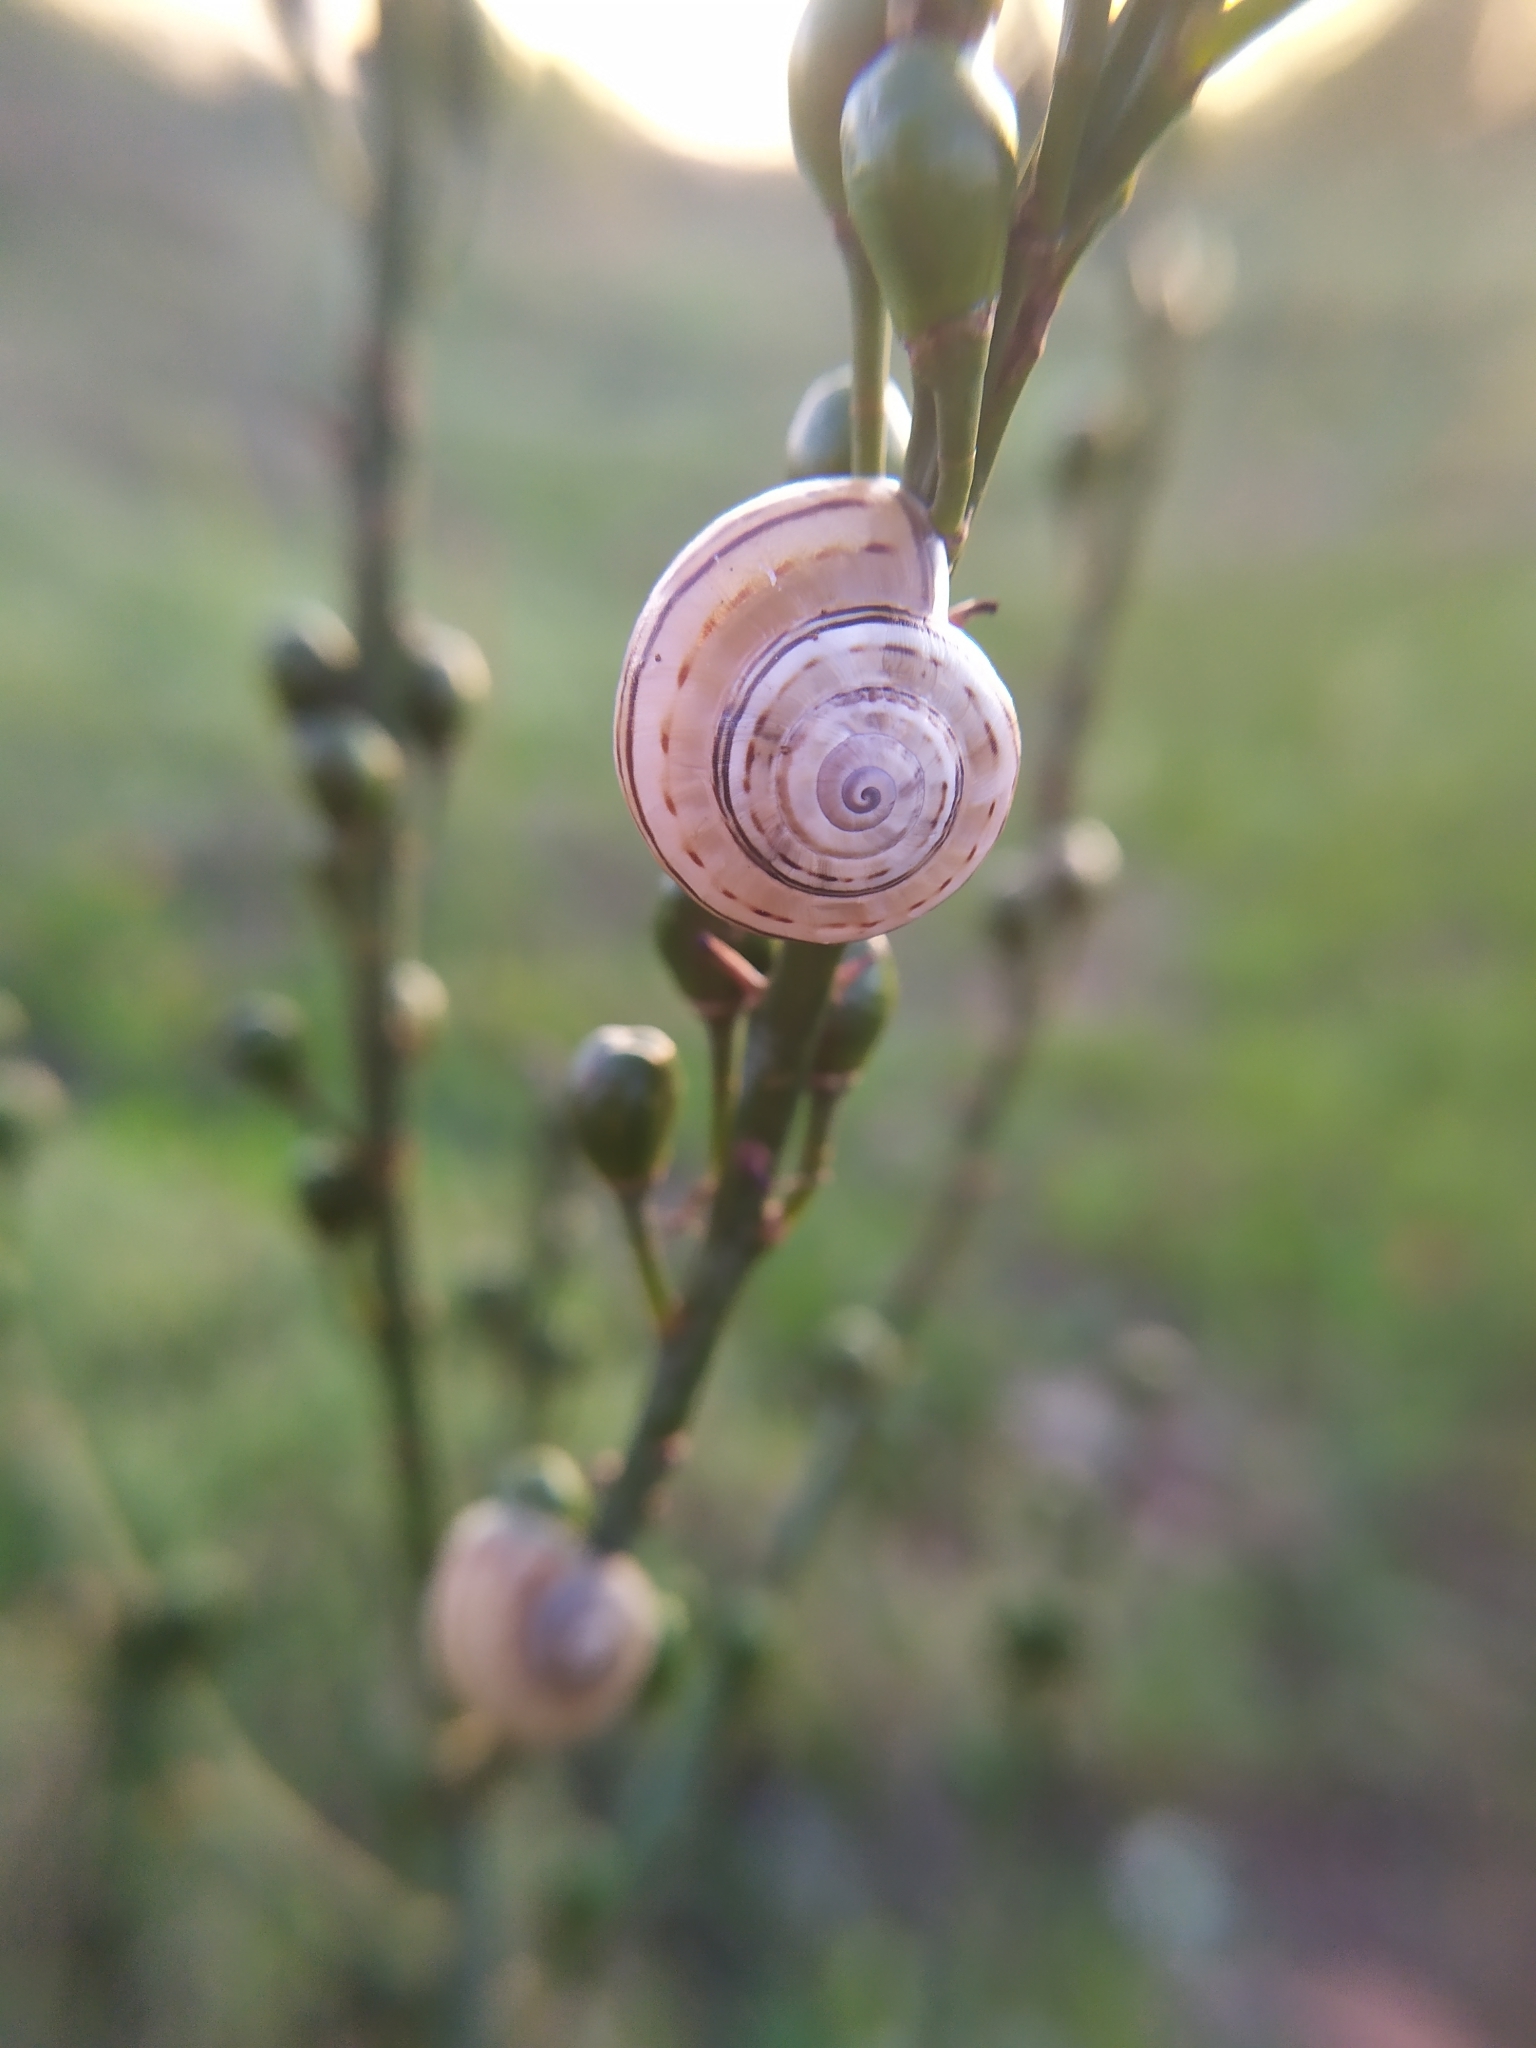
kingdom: Animalia
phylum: Mollusca
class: Gastropoda
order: Stylommatophora
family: Helicidae
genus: Theba
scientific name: Theba pisana
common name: White snail
